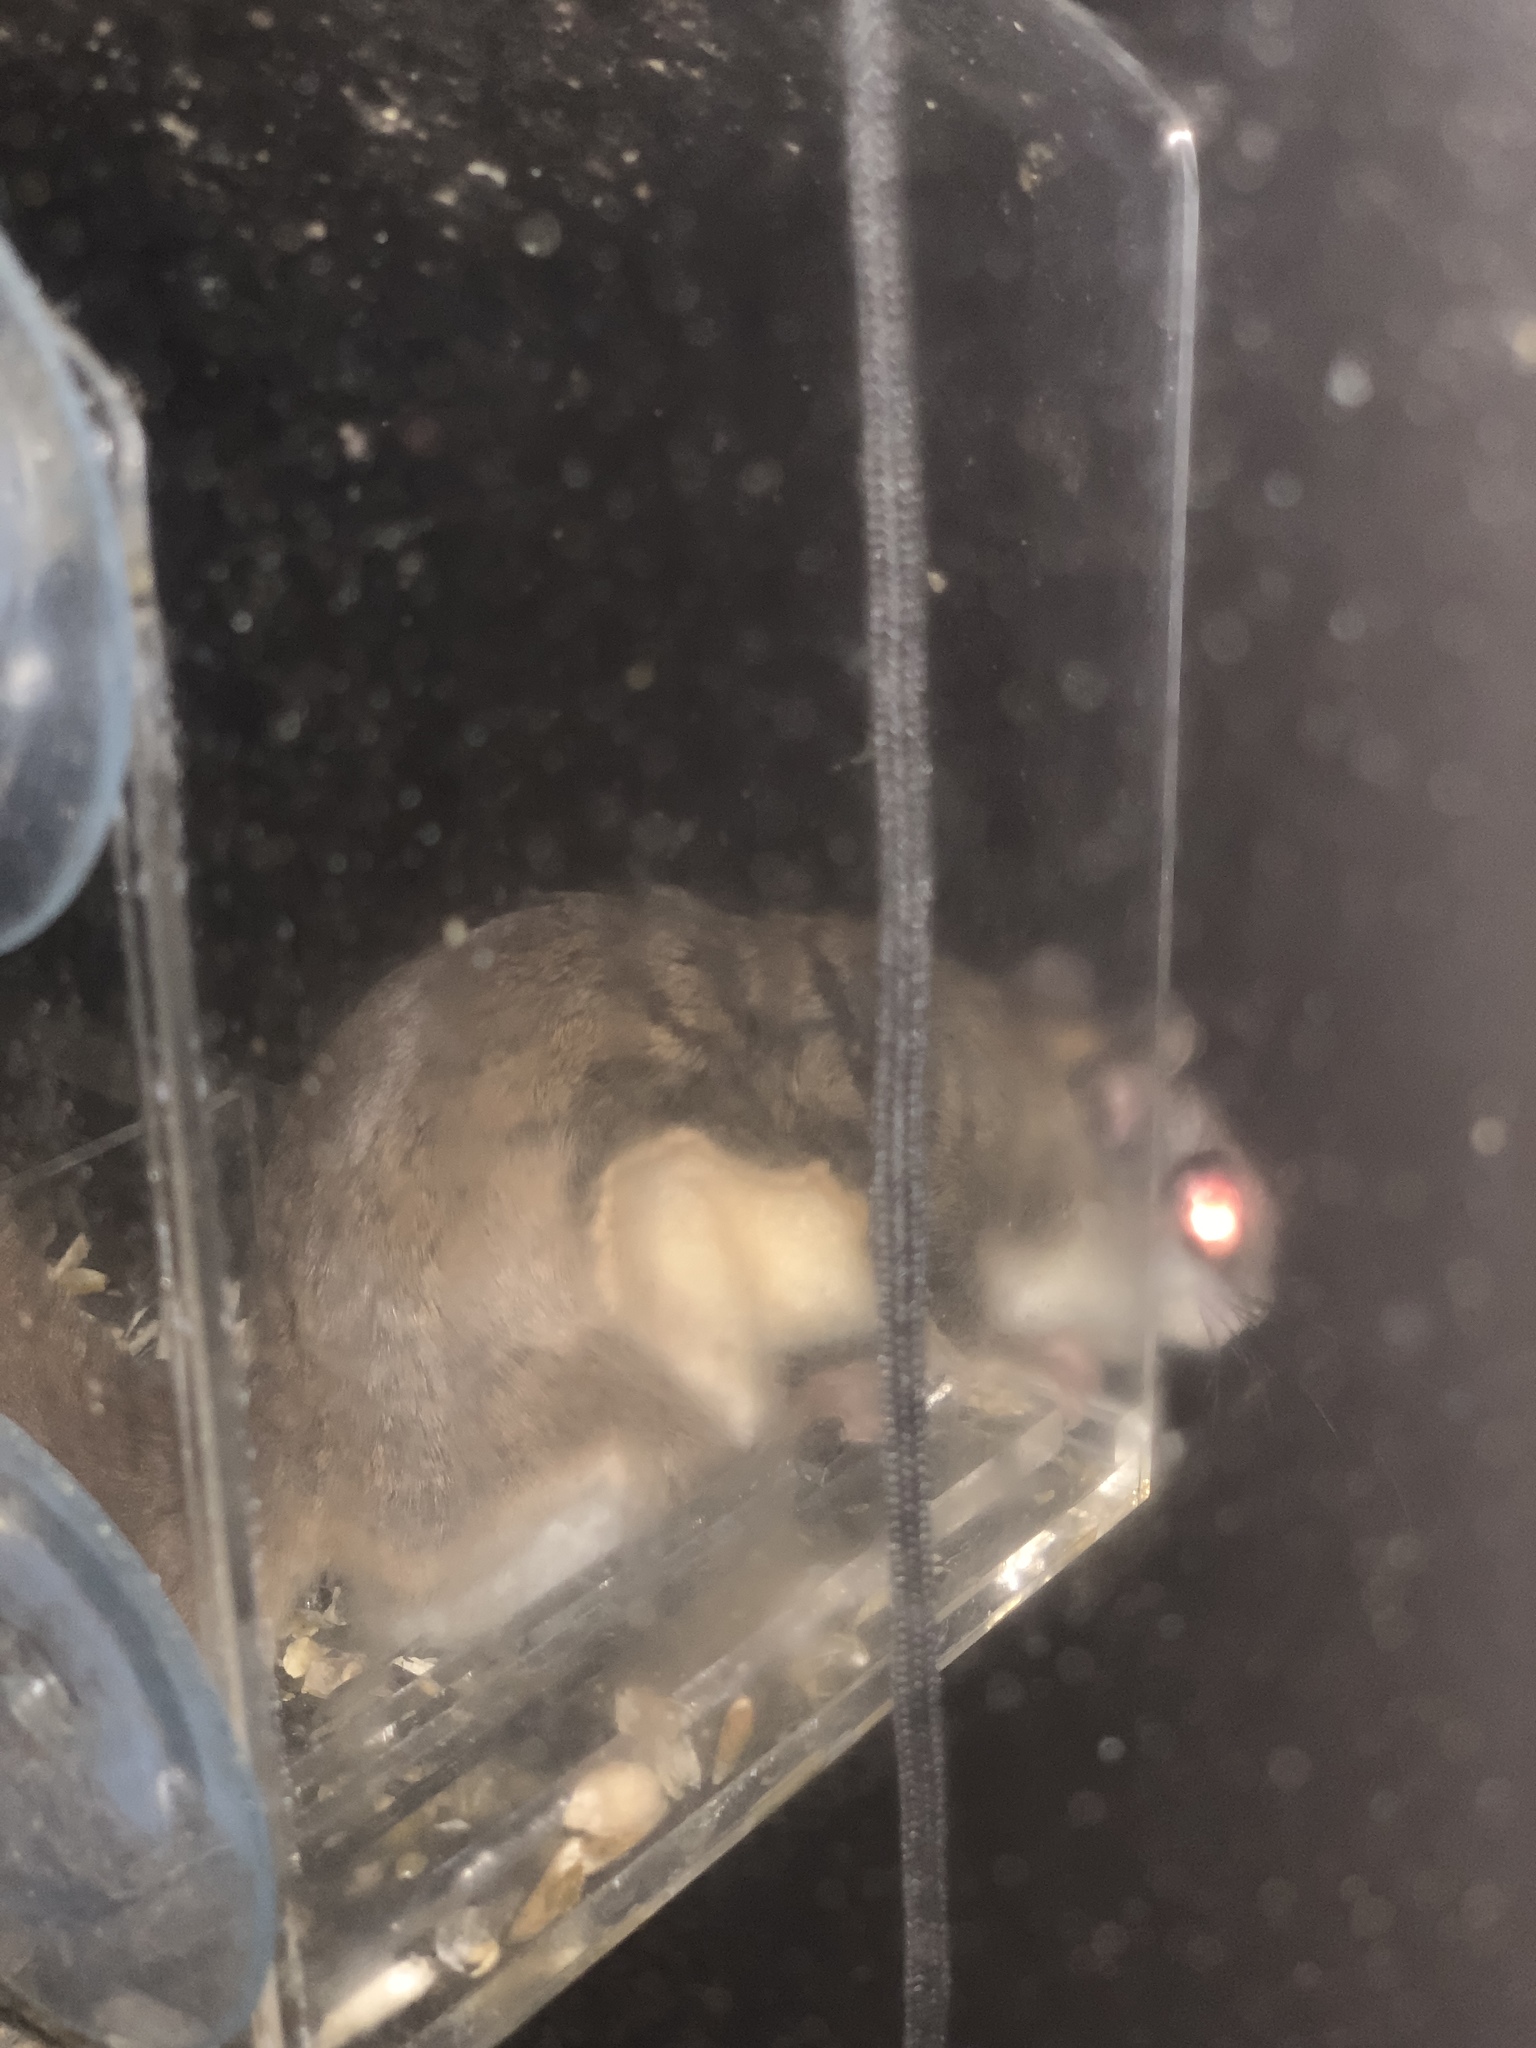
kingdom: Animalia
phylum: Chordata
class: Mammalia
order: Rodentia
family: Sciuridae
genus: Glaucomys
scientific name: Glaucomys volans
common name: Southern flying squirrel
